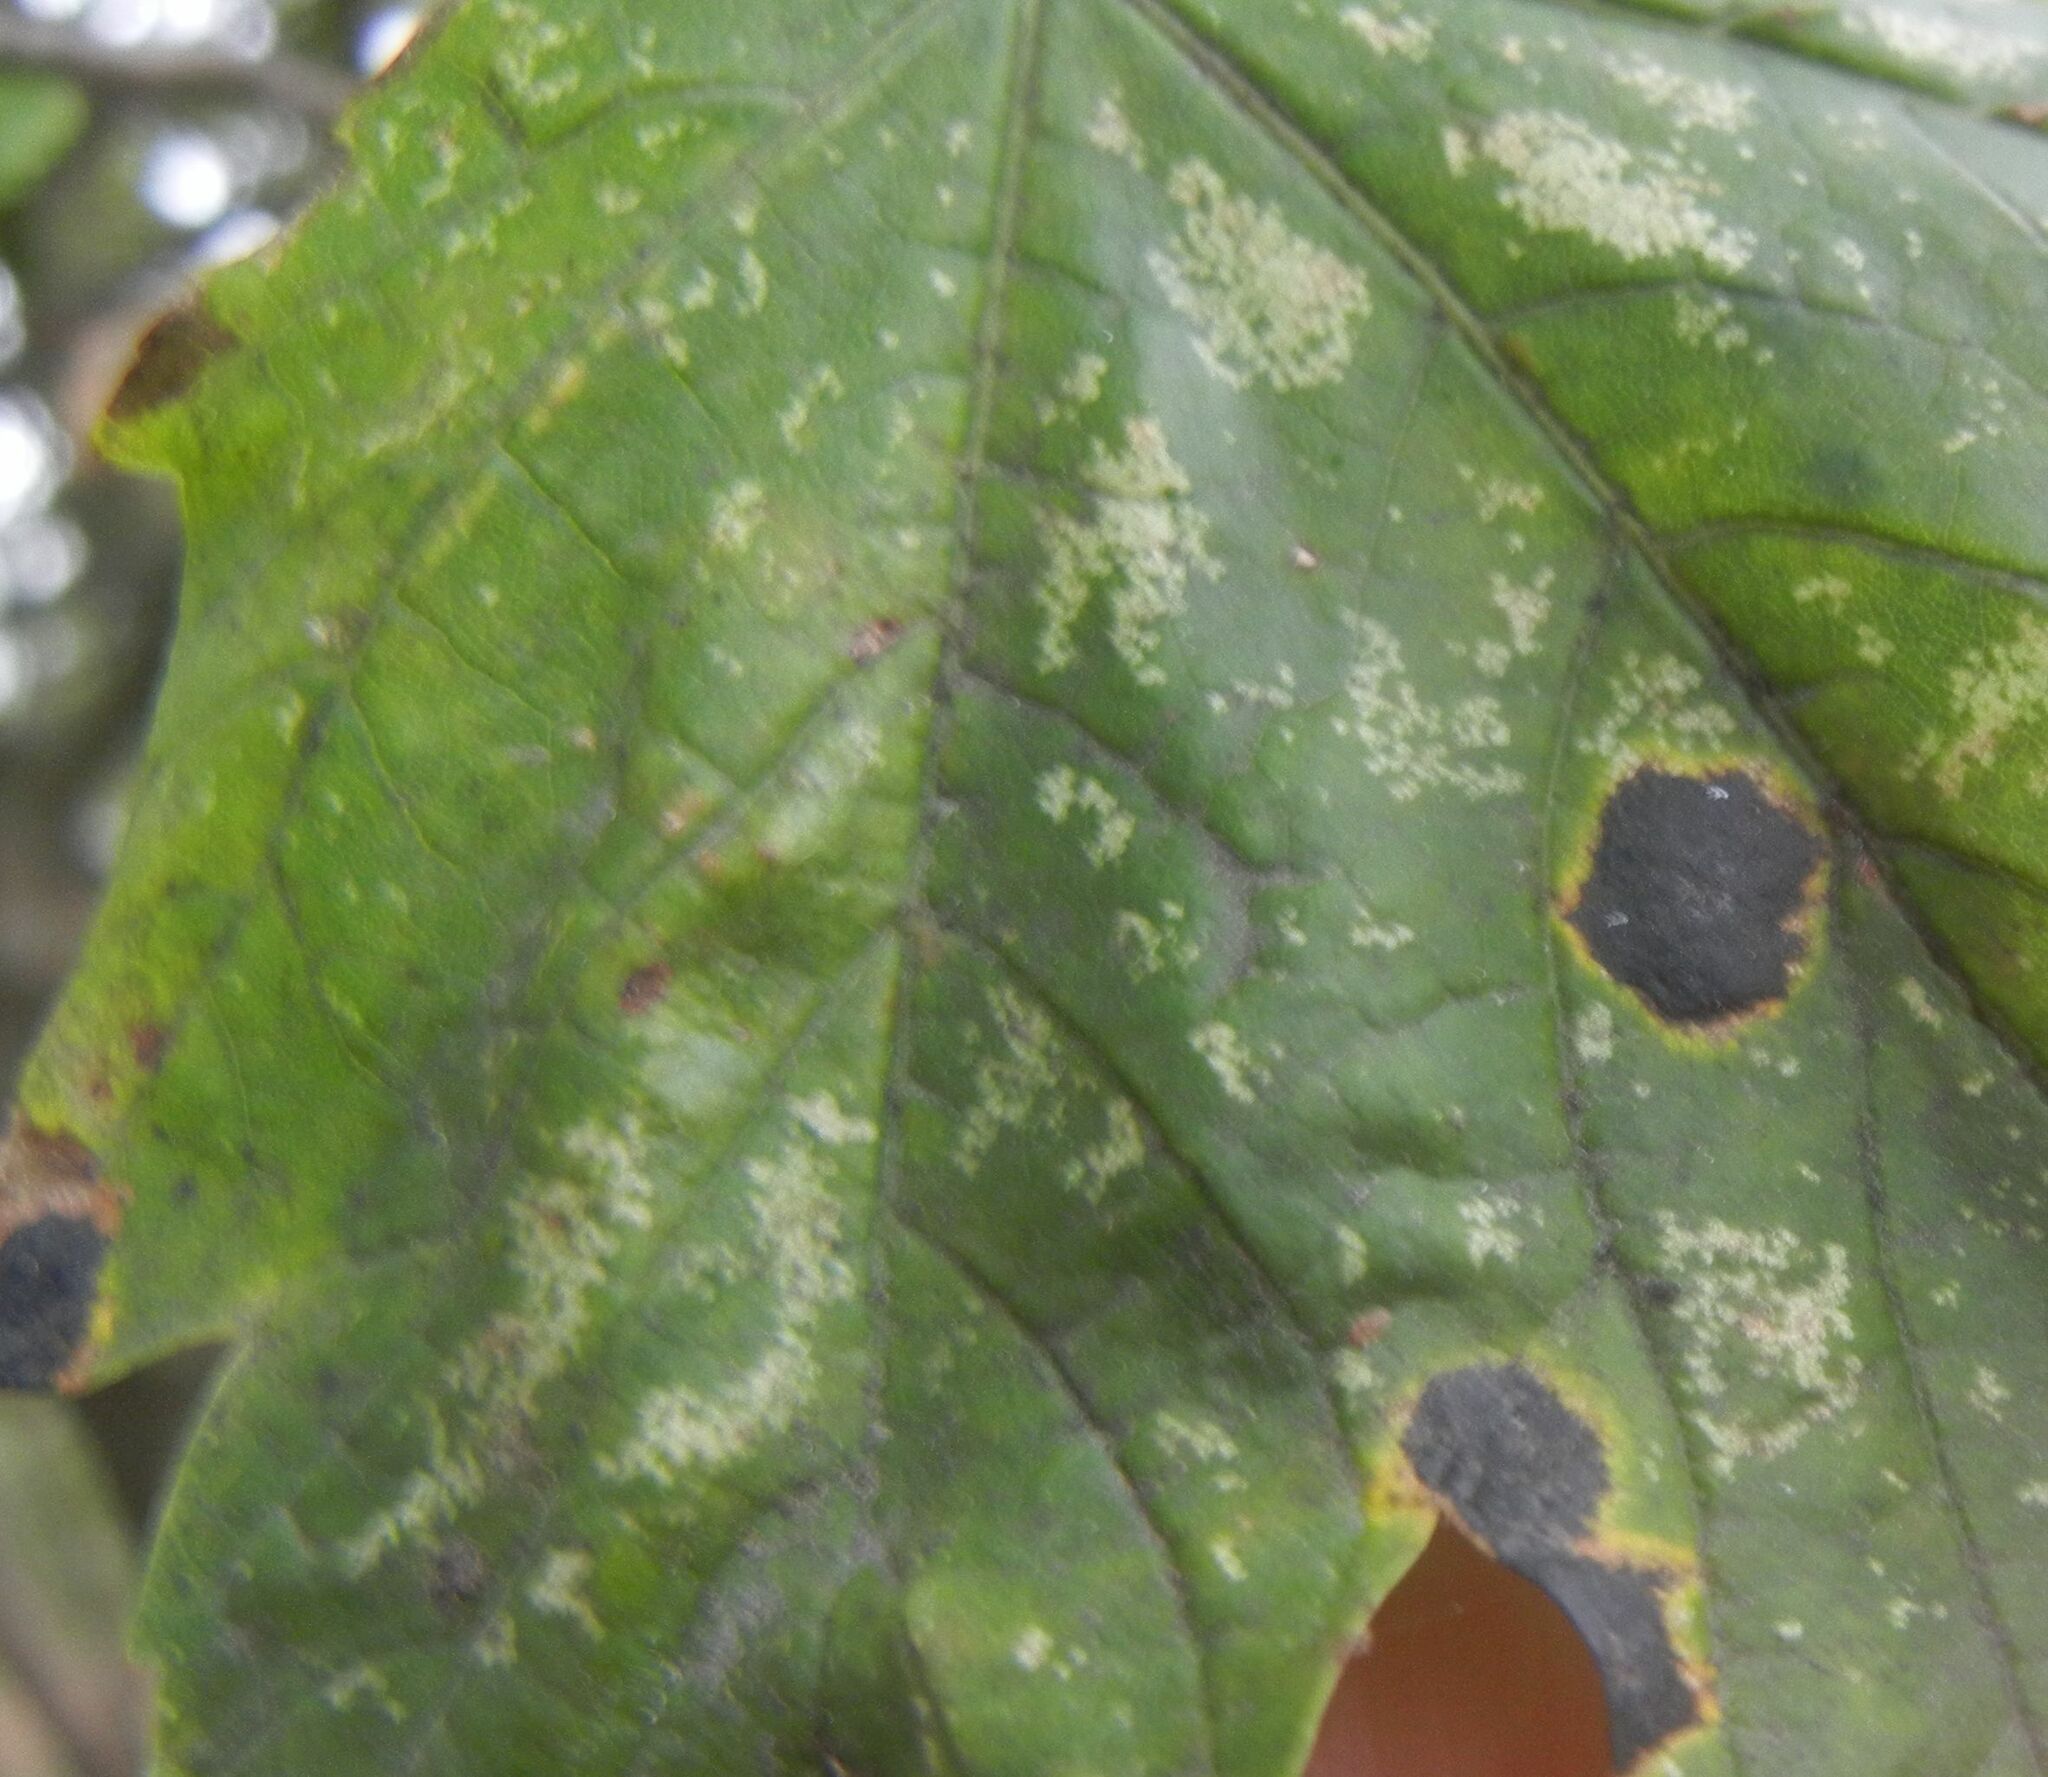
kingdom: Fungi
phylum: Ascomycota
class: Leotiomycetes
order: Rhytismatales
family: Rhytismataceae
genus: Rhytisma
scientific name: Rhytisma acerinum
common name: European tar spot
